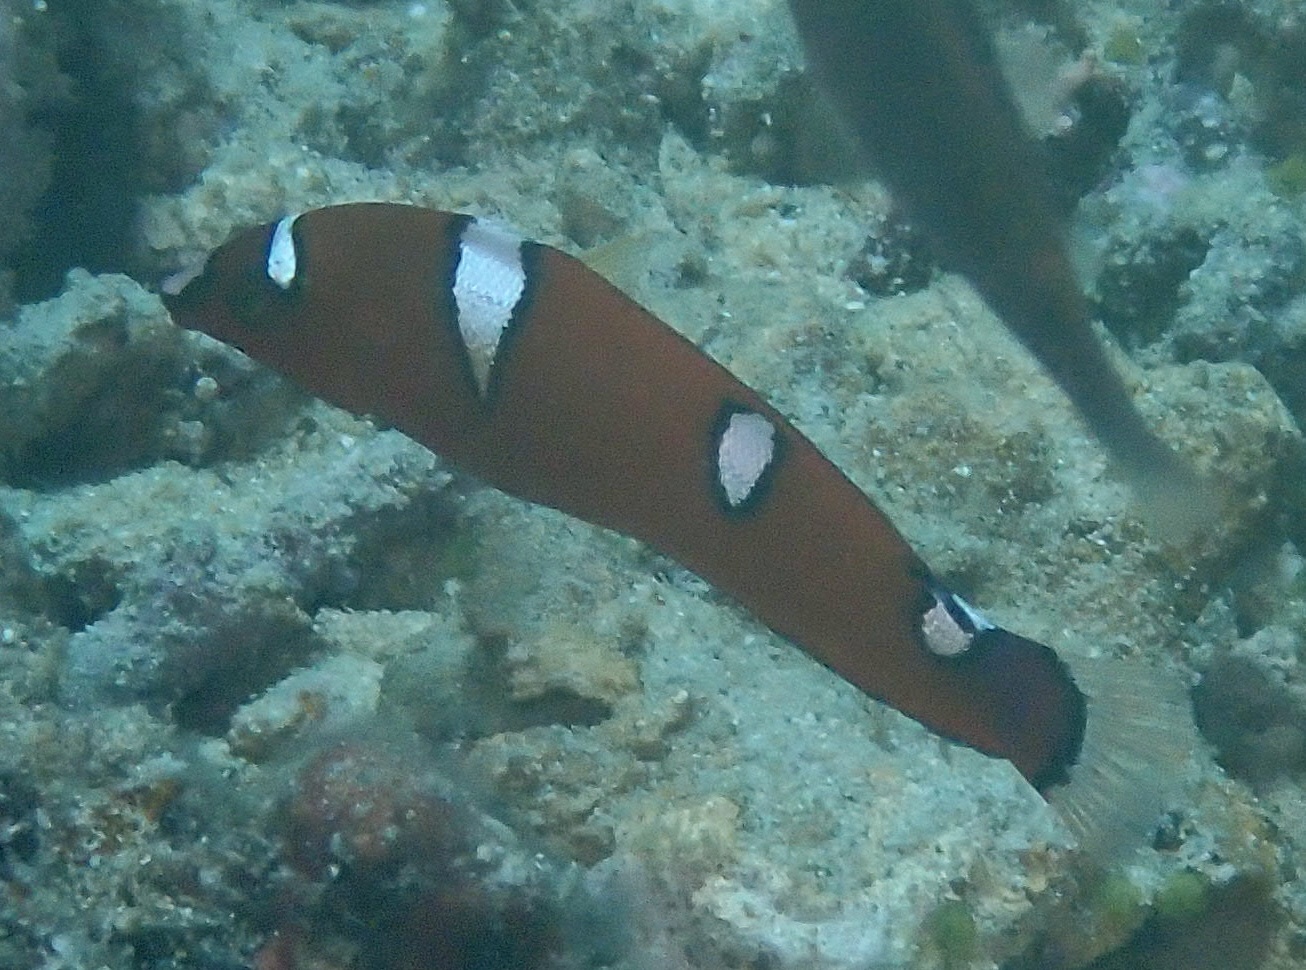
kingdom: Animalia
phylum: Chordata
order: Perciformes
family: Labridae
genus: Coris
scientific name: Coris gaimard
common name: Yellowtail coris
